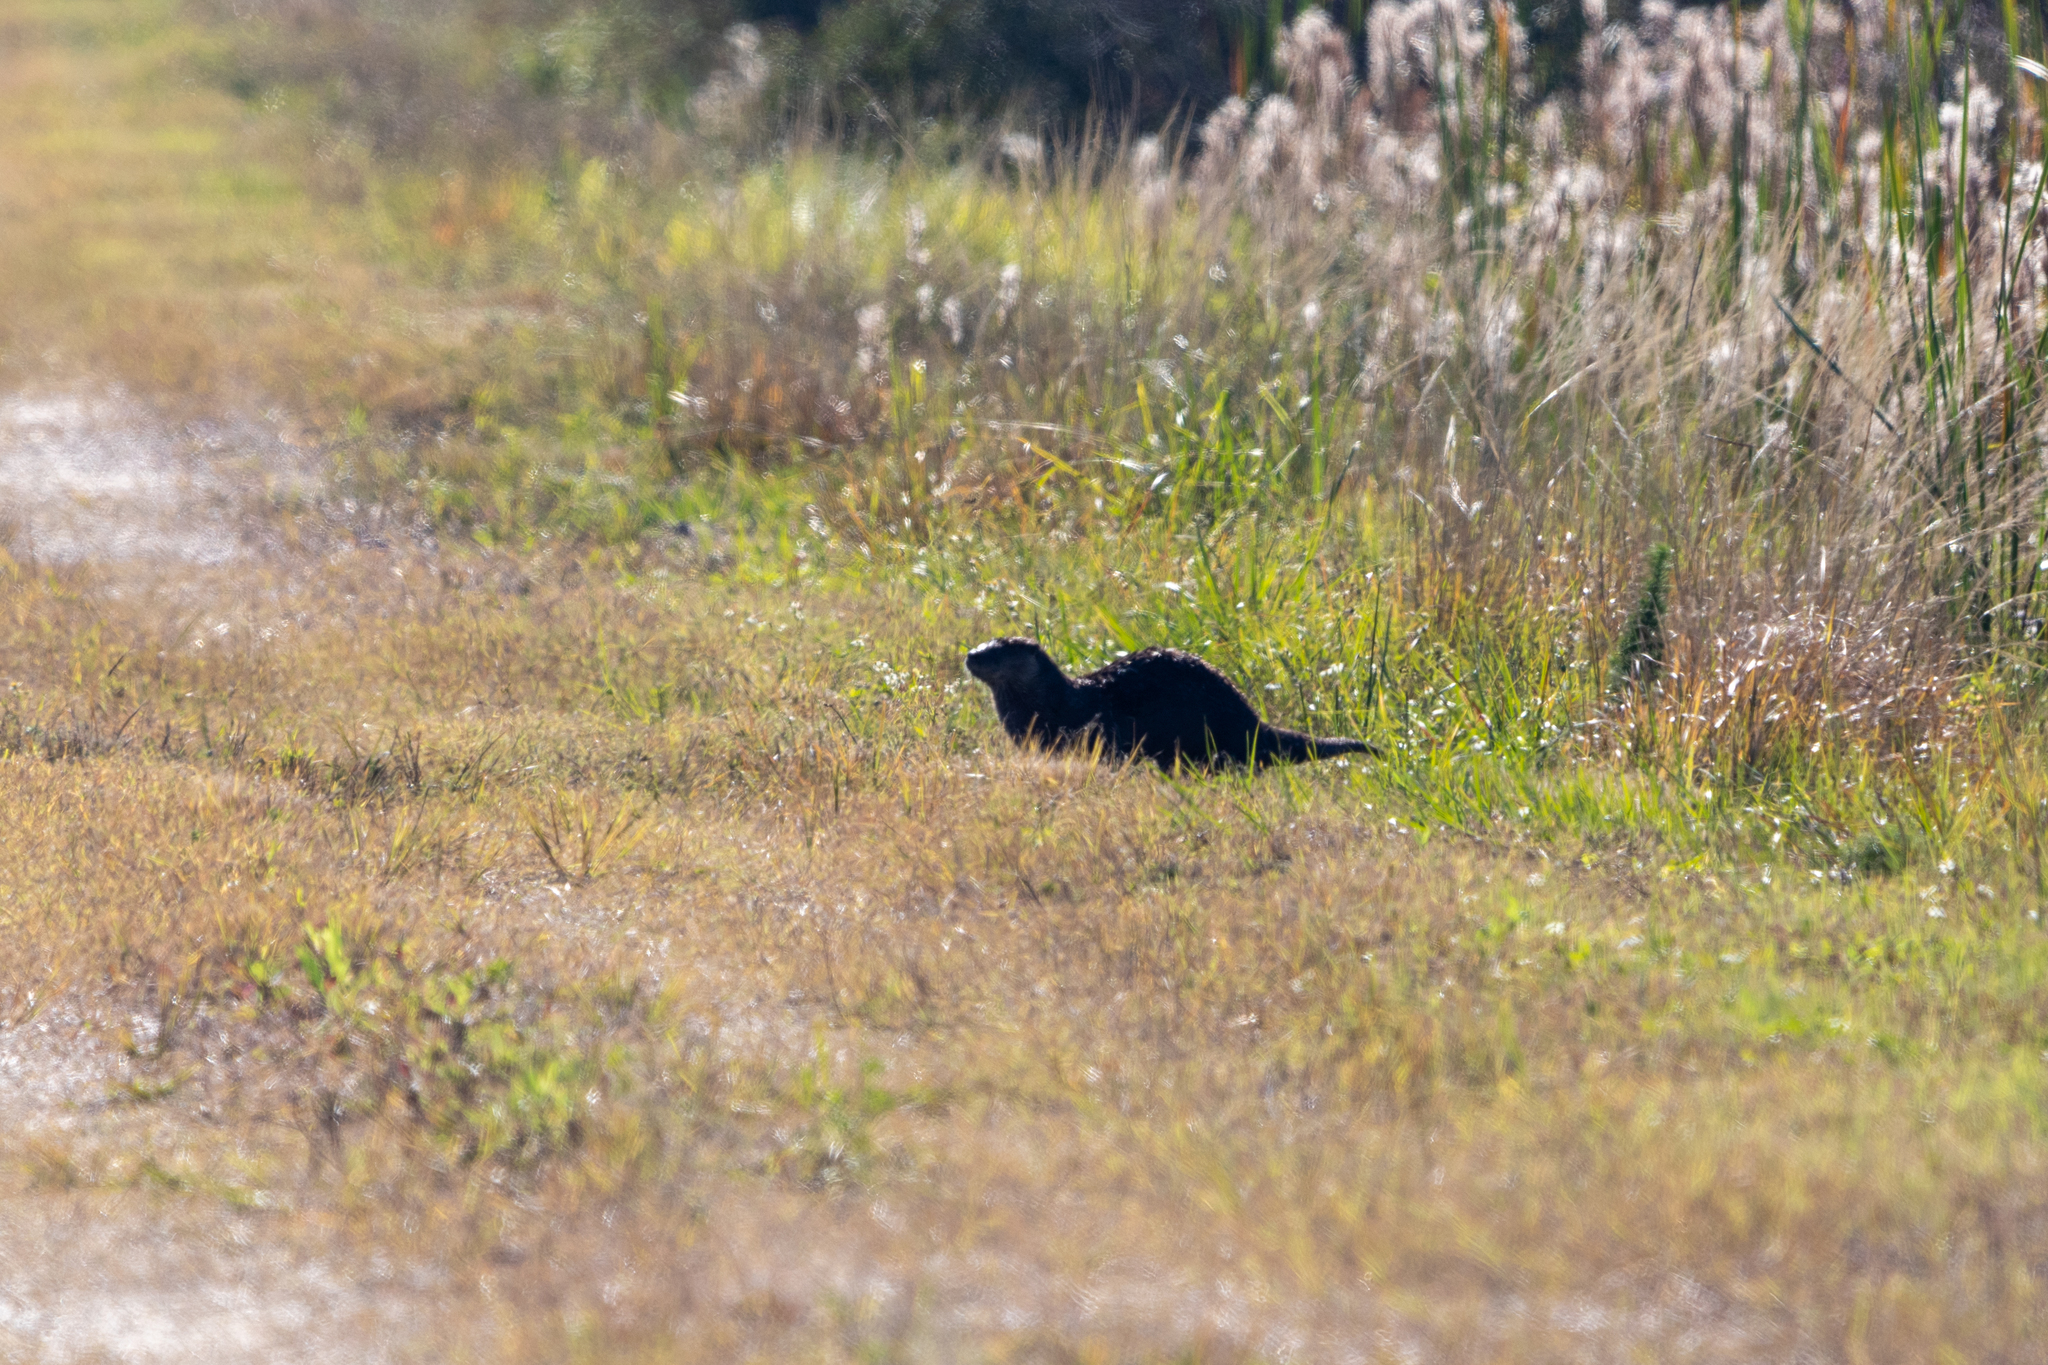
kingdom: Animalia
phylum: Chordata
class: Mammalia
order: Carnivora
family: Mustelidae
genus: Lontra
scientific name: Lontra canadensis
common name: North american river otter
